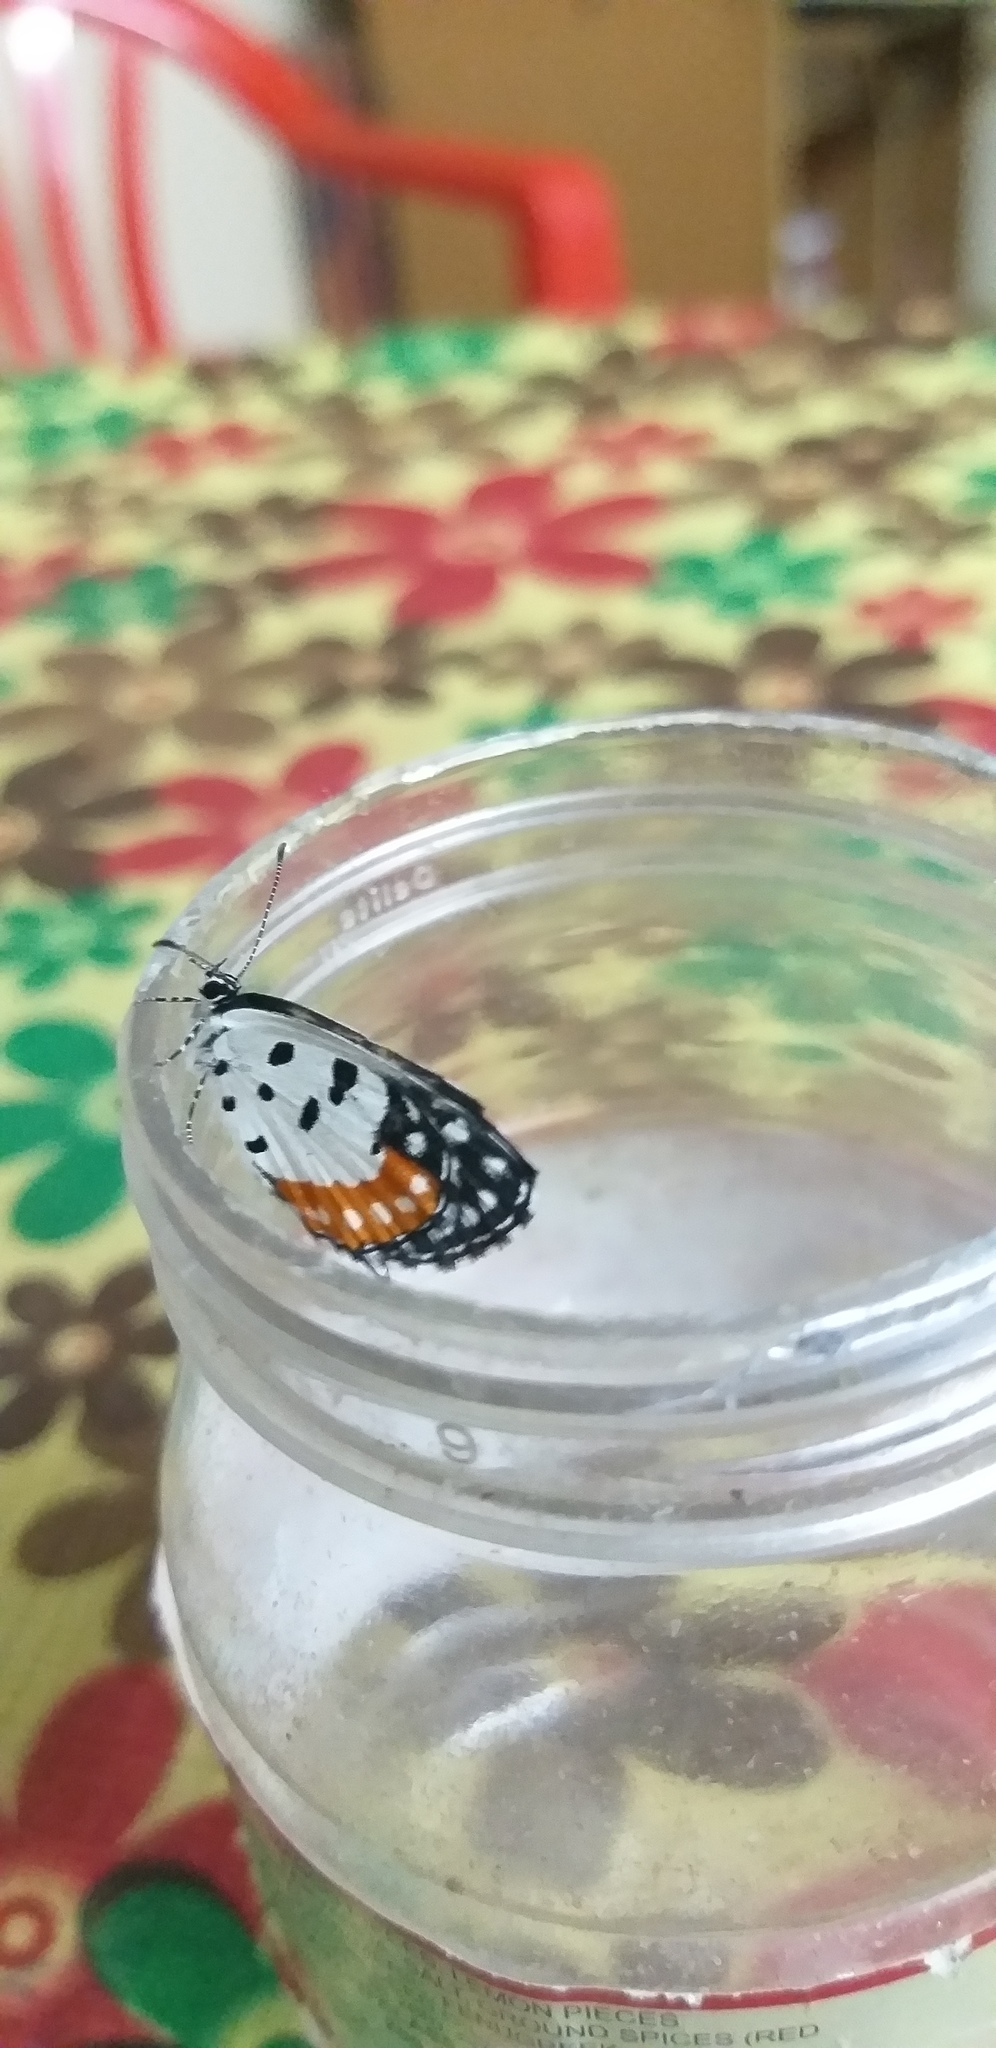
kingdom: Animalia
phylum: Arthropoda
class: Insecta
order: Lepidoptera
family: Lycaenidae
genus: Talicada
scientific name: Talicada nyseus
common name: Red pierrot
